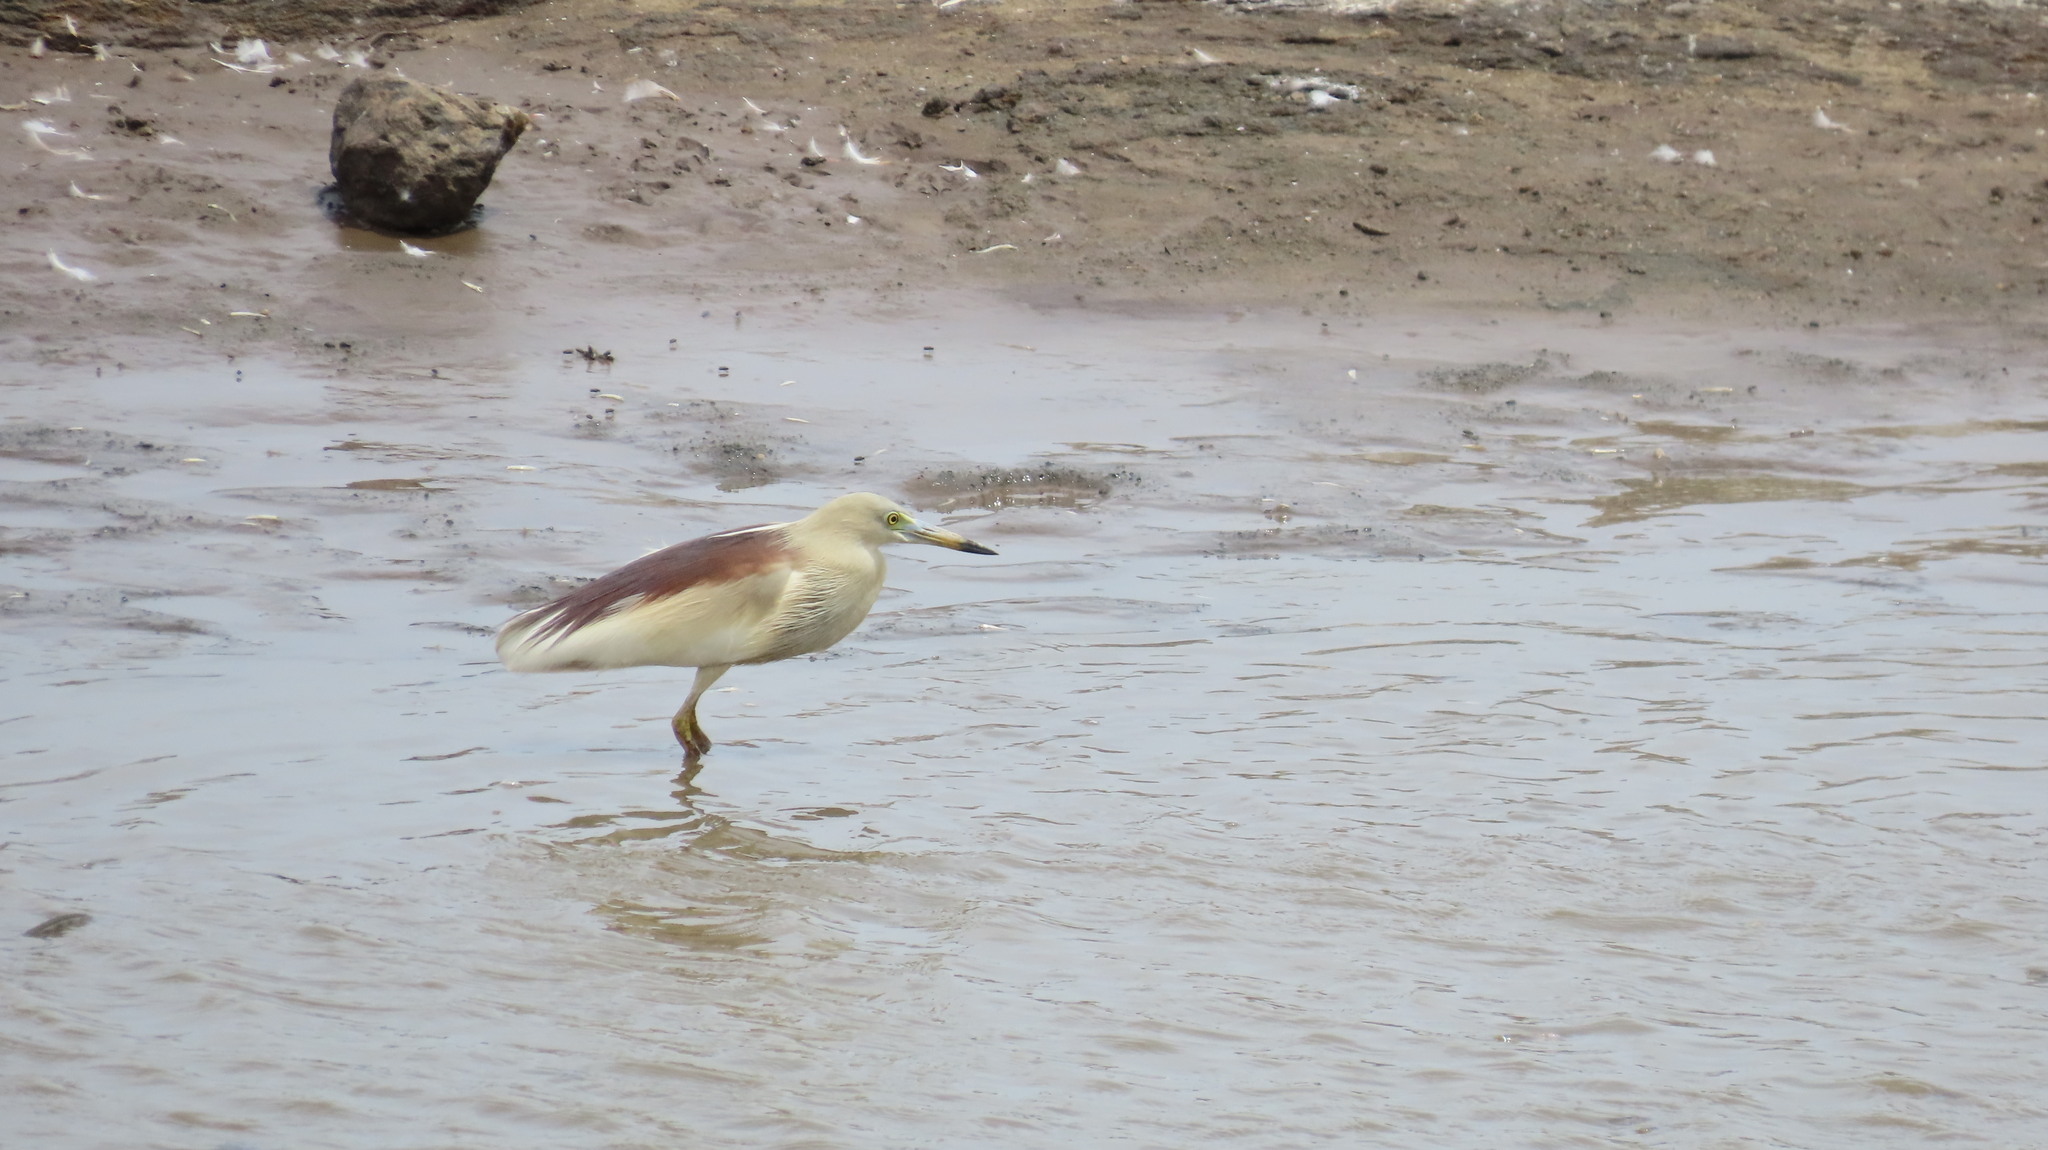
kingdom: Animalia
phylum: Chordata
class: Aves
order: Pelecaniformes
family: Ardeidae
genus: Ardeola
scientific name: Ardeola grayii
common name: Indian pond heron
